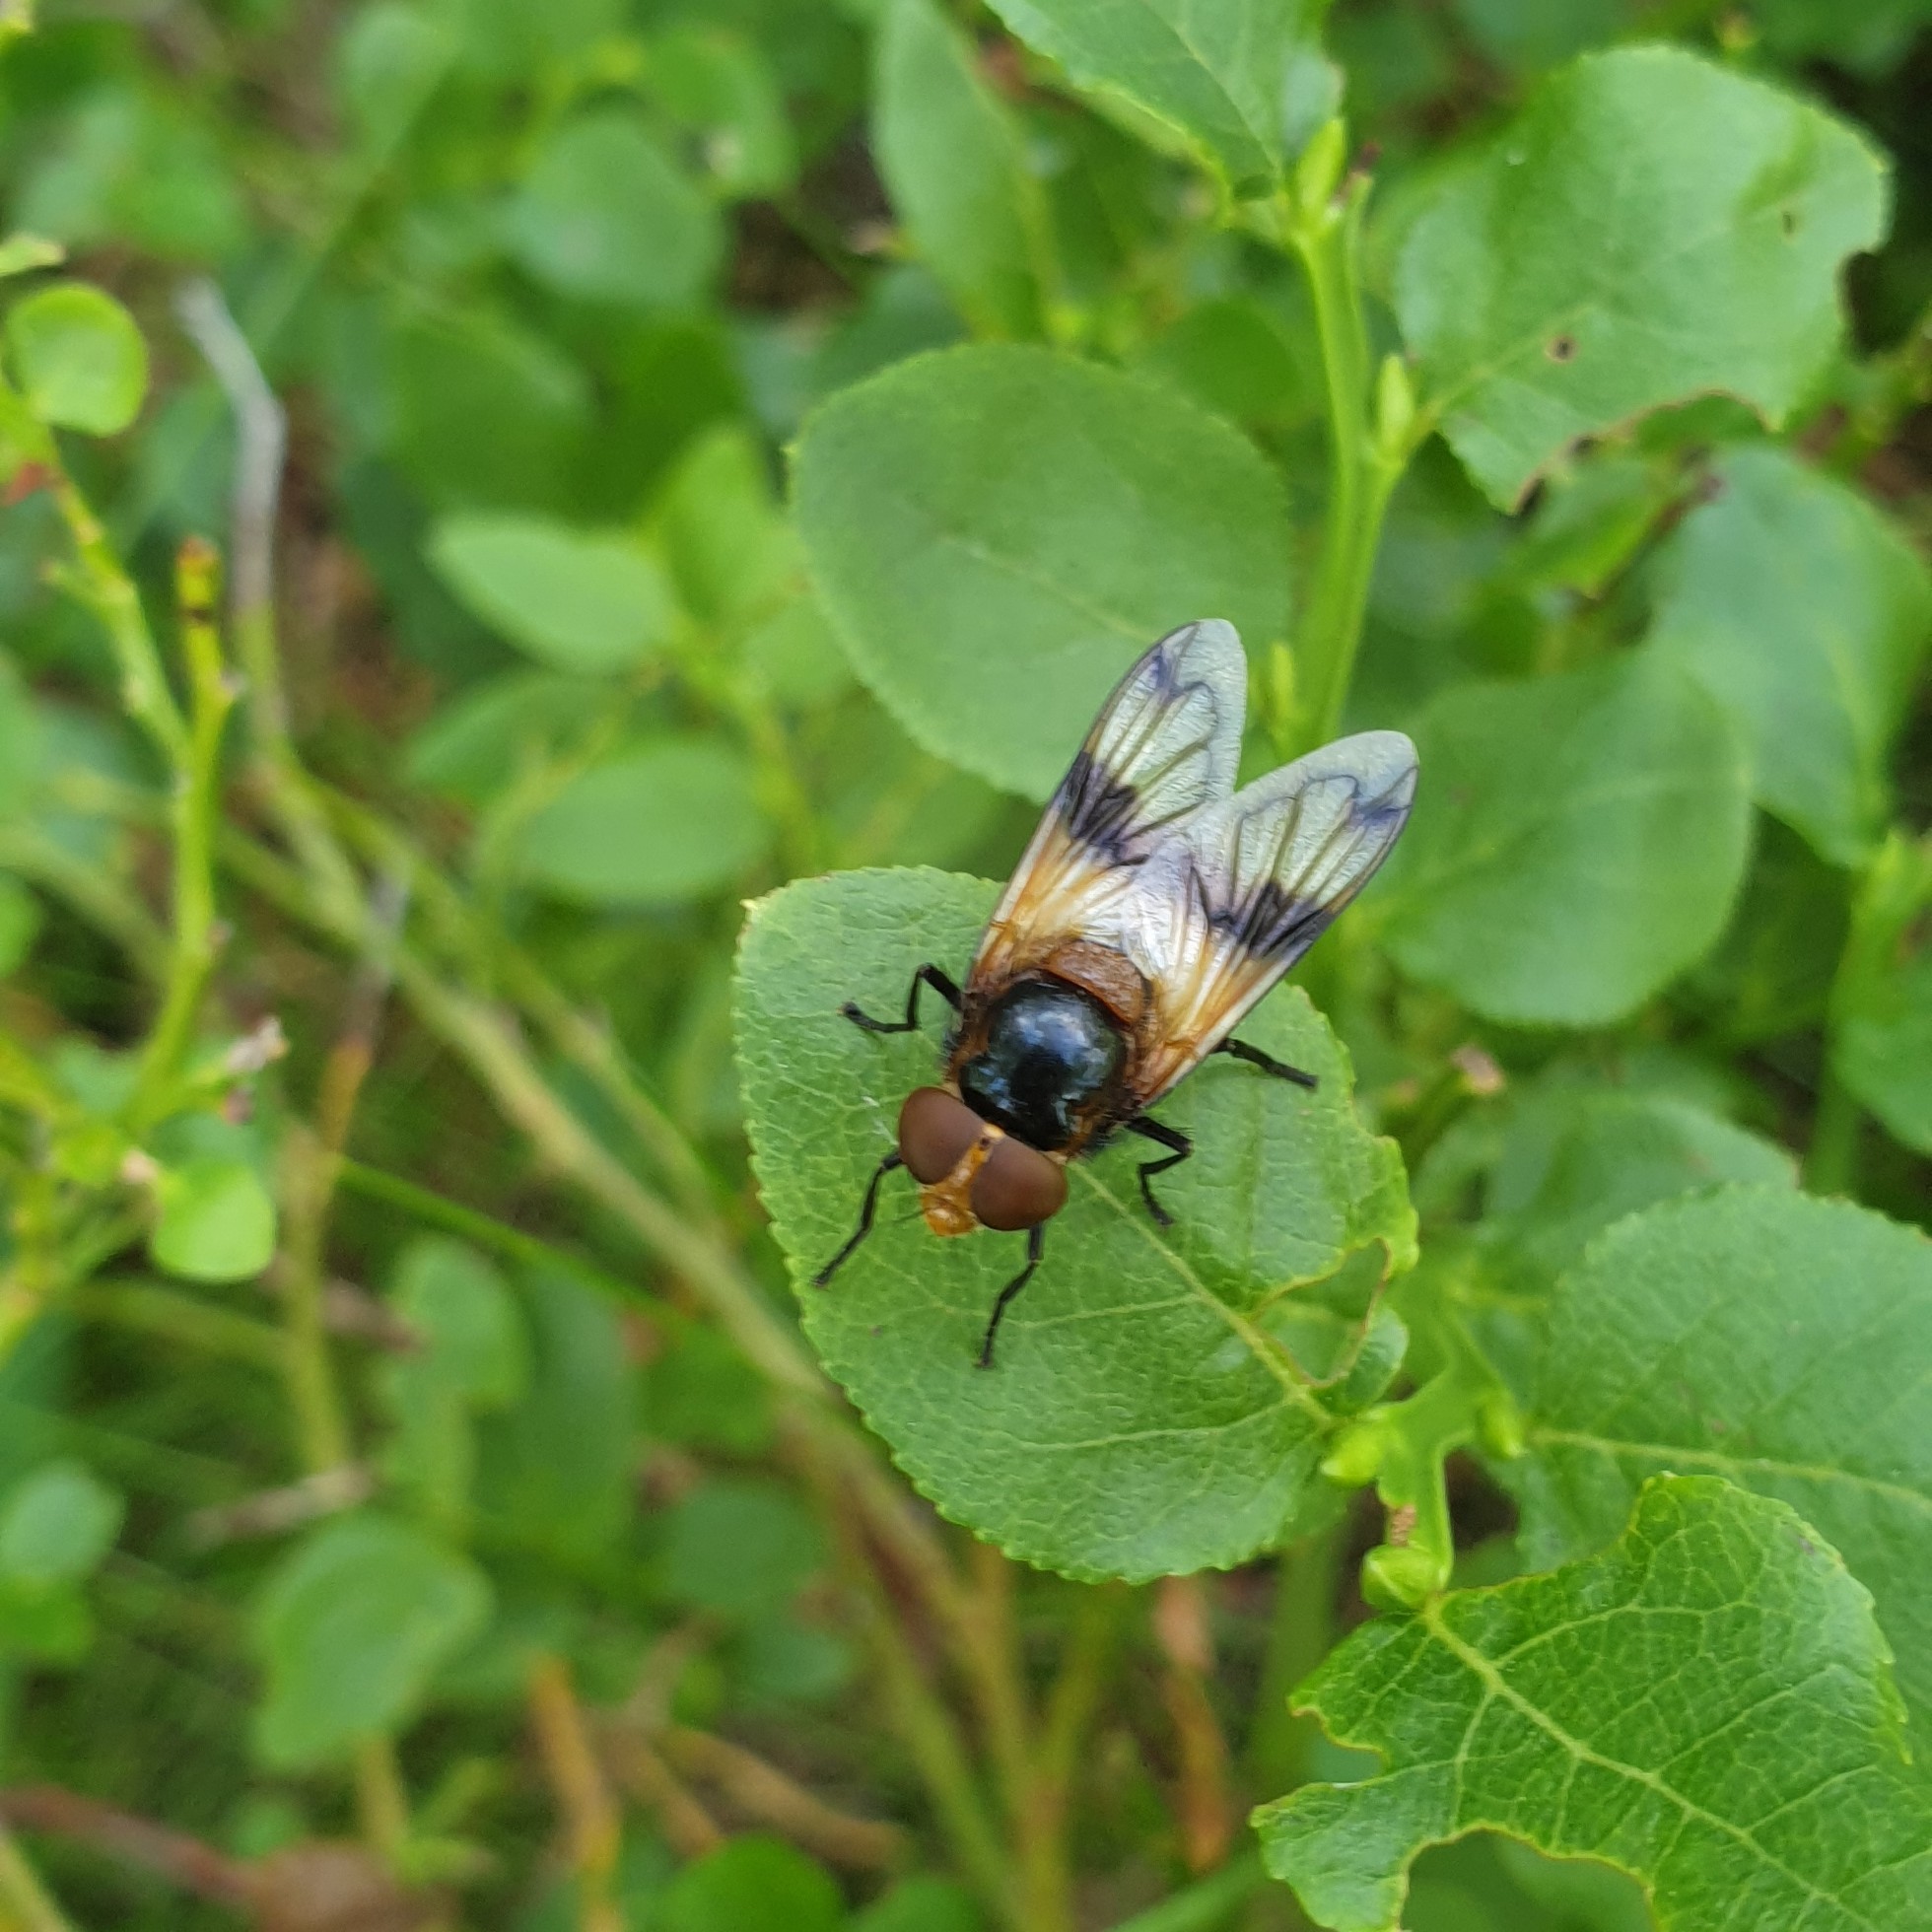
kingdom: Animalia
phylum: Arthropoda
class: Insecta
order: Diptera
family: Syrphidae
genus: Volucella
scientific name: Volucella pellucens
